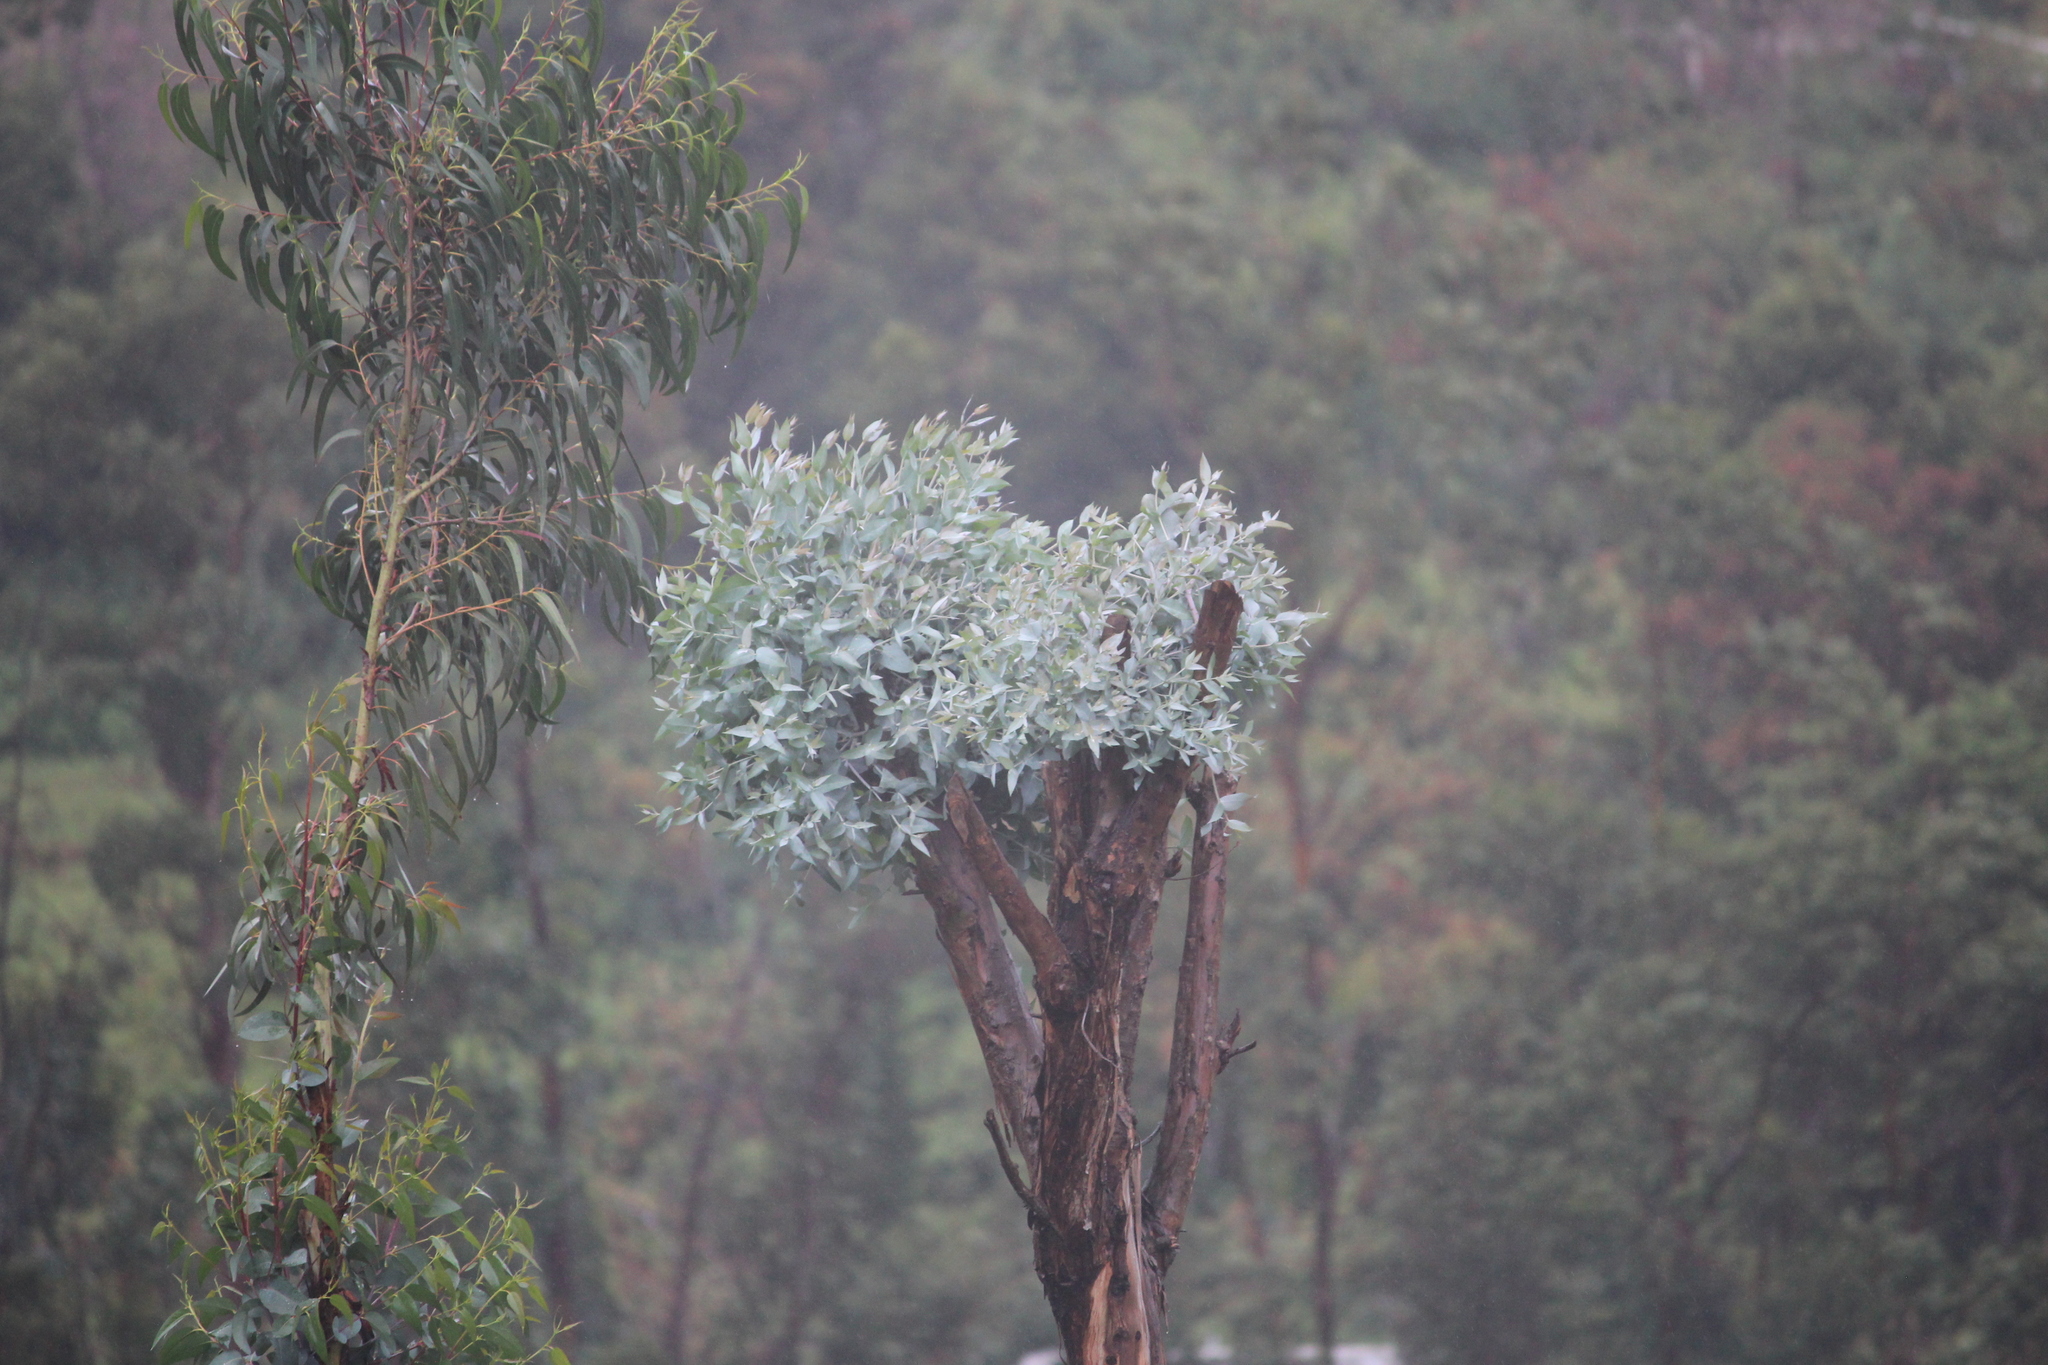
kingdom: Plantae
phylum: Tracheophyta
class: Magnoliopsida
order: Myrtales
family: Myrtaceae
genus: Eucalyptus
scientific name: Eucalyptus globulus
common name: Southern blue-gum
